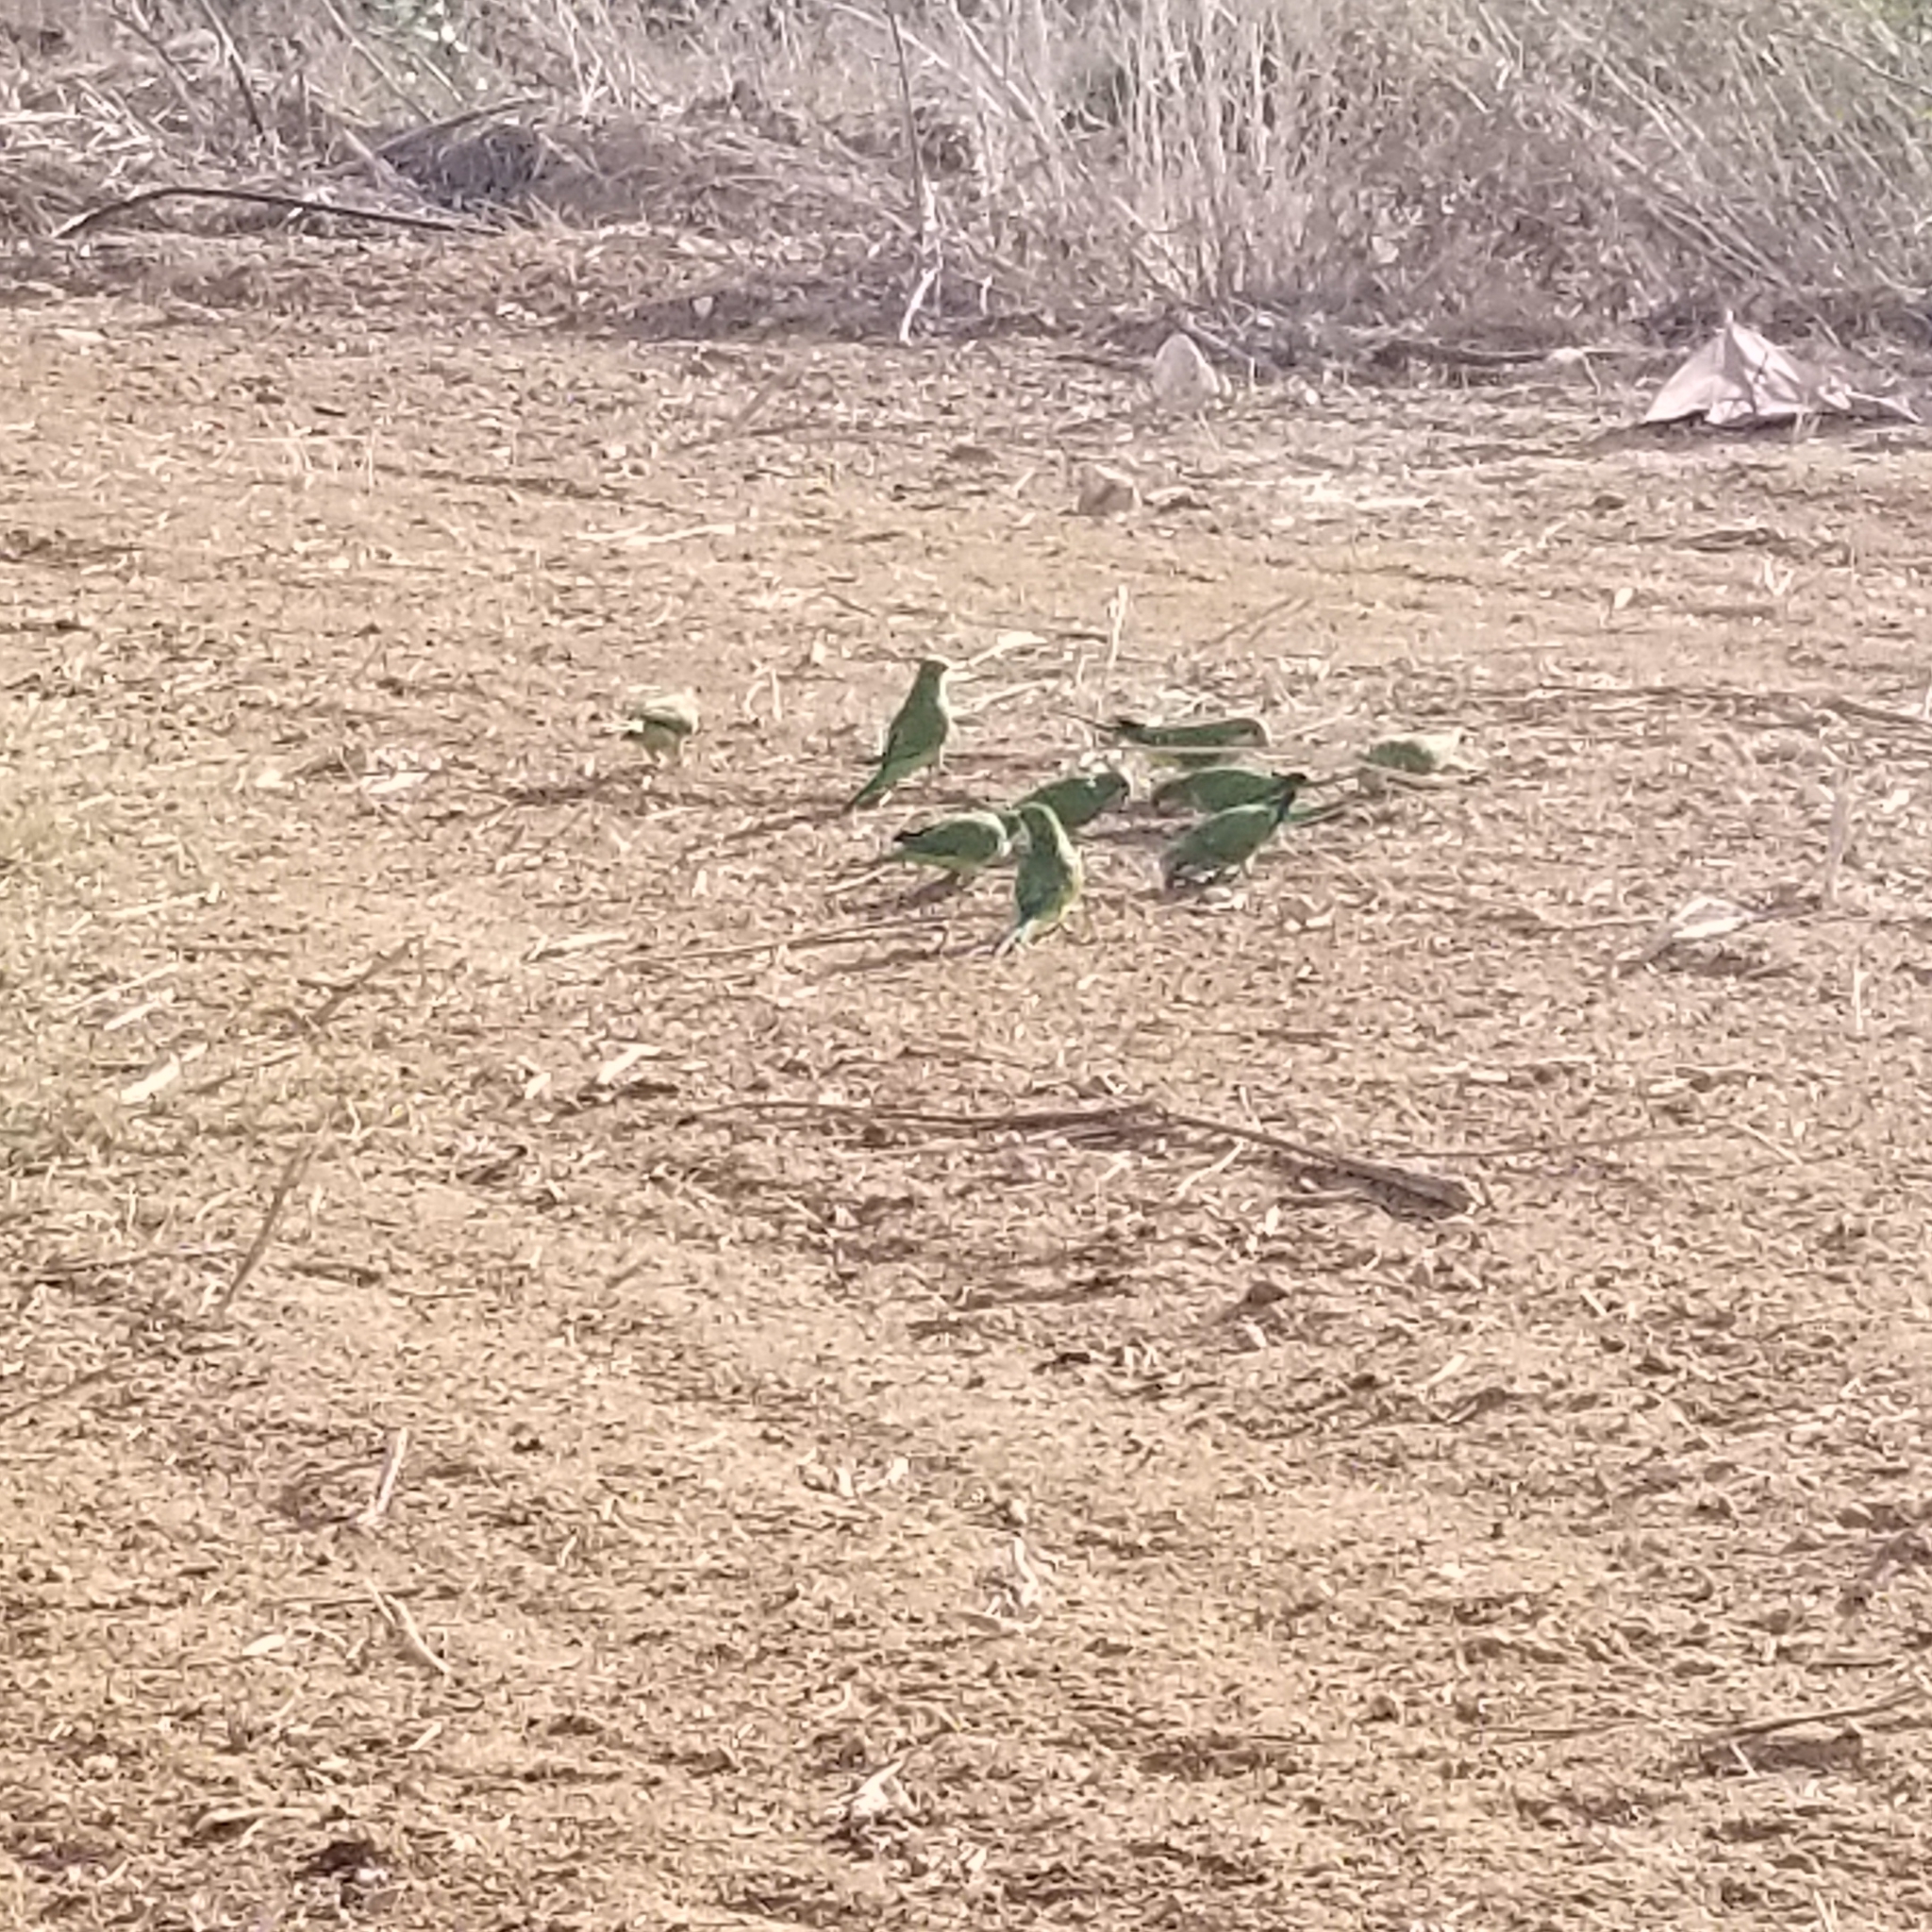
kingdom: Animalia
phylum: Chordata
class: Aves
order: Psittaciformes
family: Psittacidae
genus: Myiopsitta
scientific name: Myiopsitta monachus
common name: Monk parakeet
